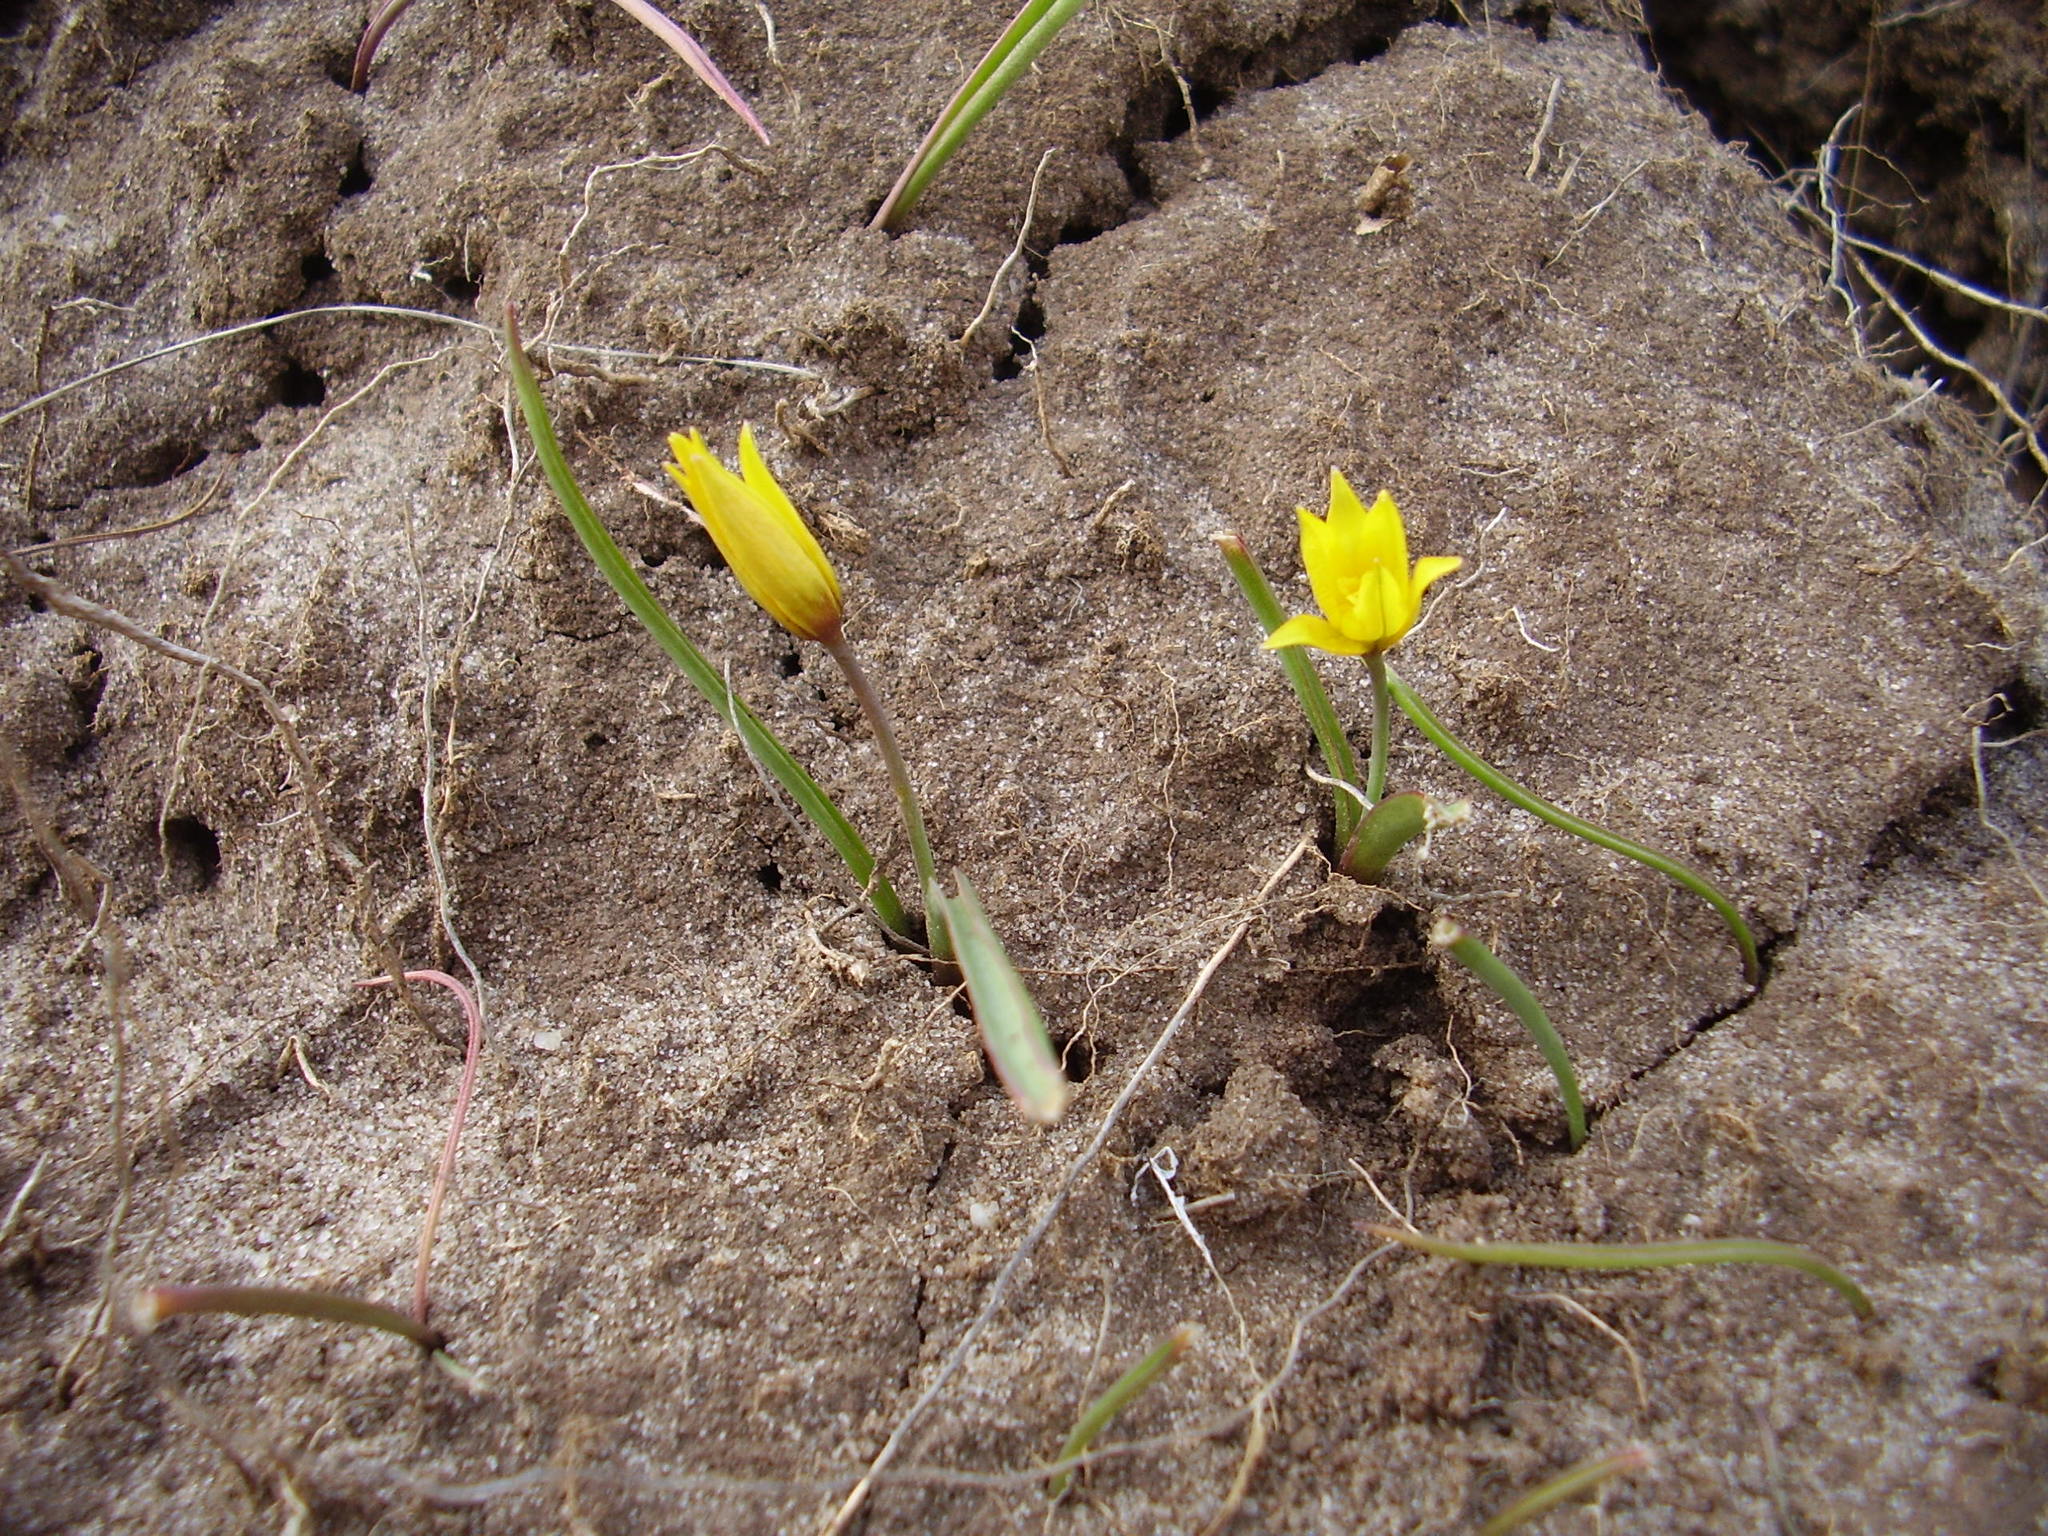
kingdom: Plantae
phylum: Tracheophyta
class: Liliopsida
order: Liliales
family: Liliaceae
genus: Tulipa
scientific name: Tulipa sylvestris
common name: Wild tulip
